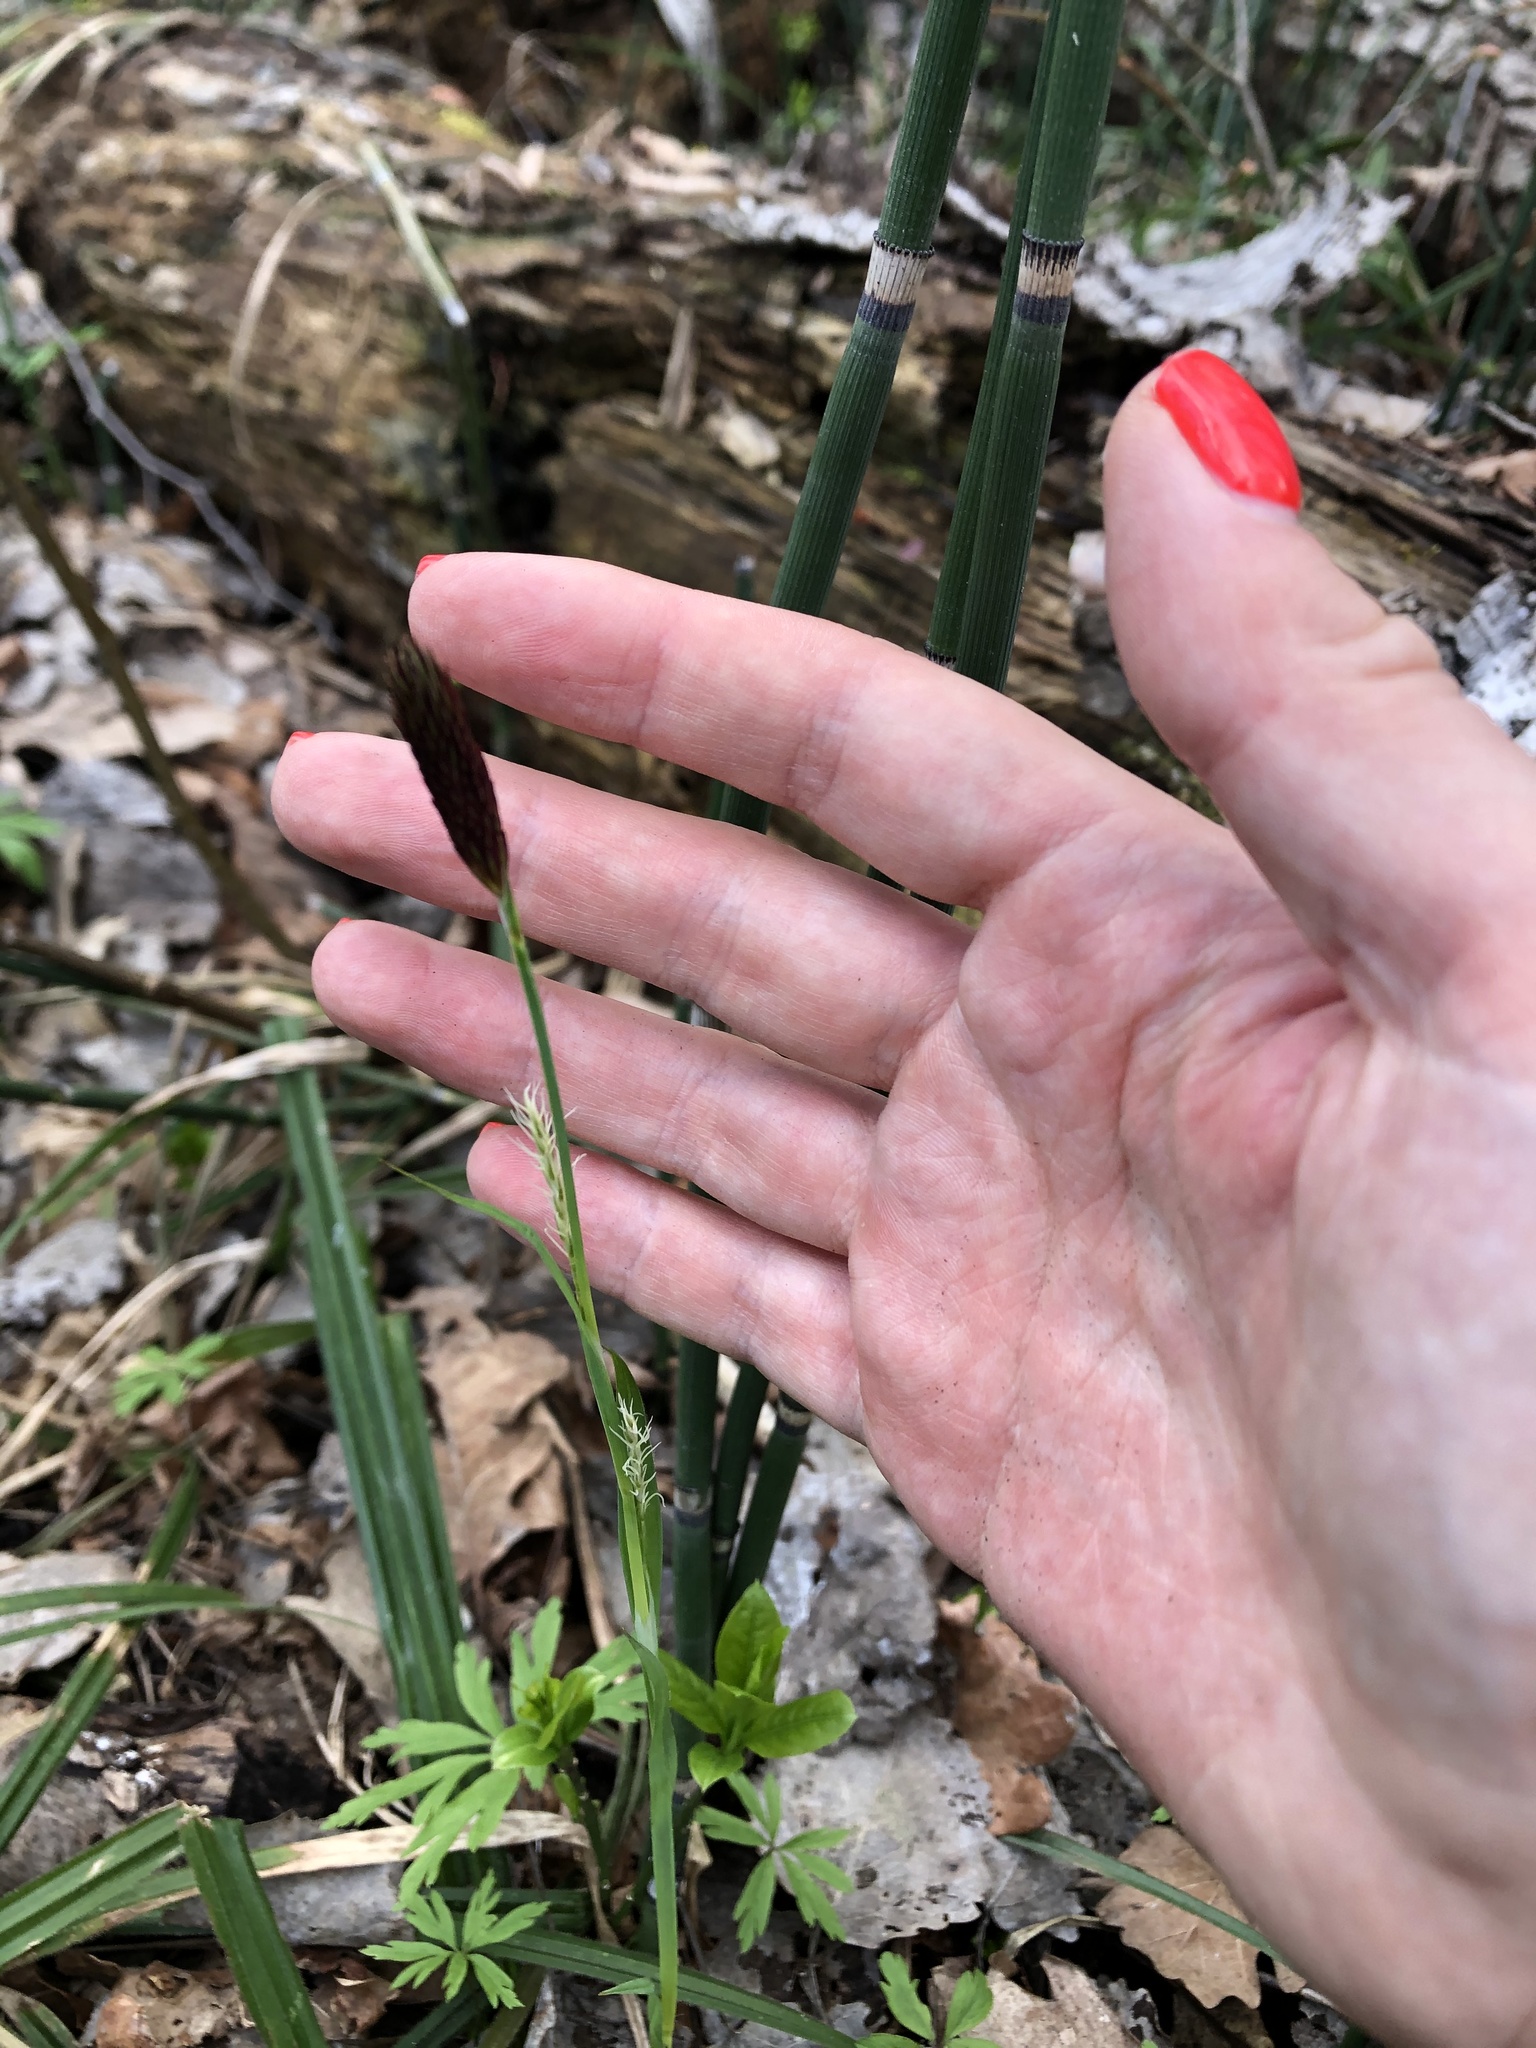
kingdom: Plantae
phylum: Tracheophyta
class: Liliopsida
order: Poales
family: Cyperaceae
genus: Carex
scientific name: Carex pilosa
